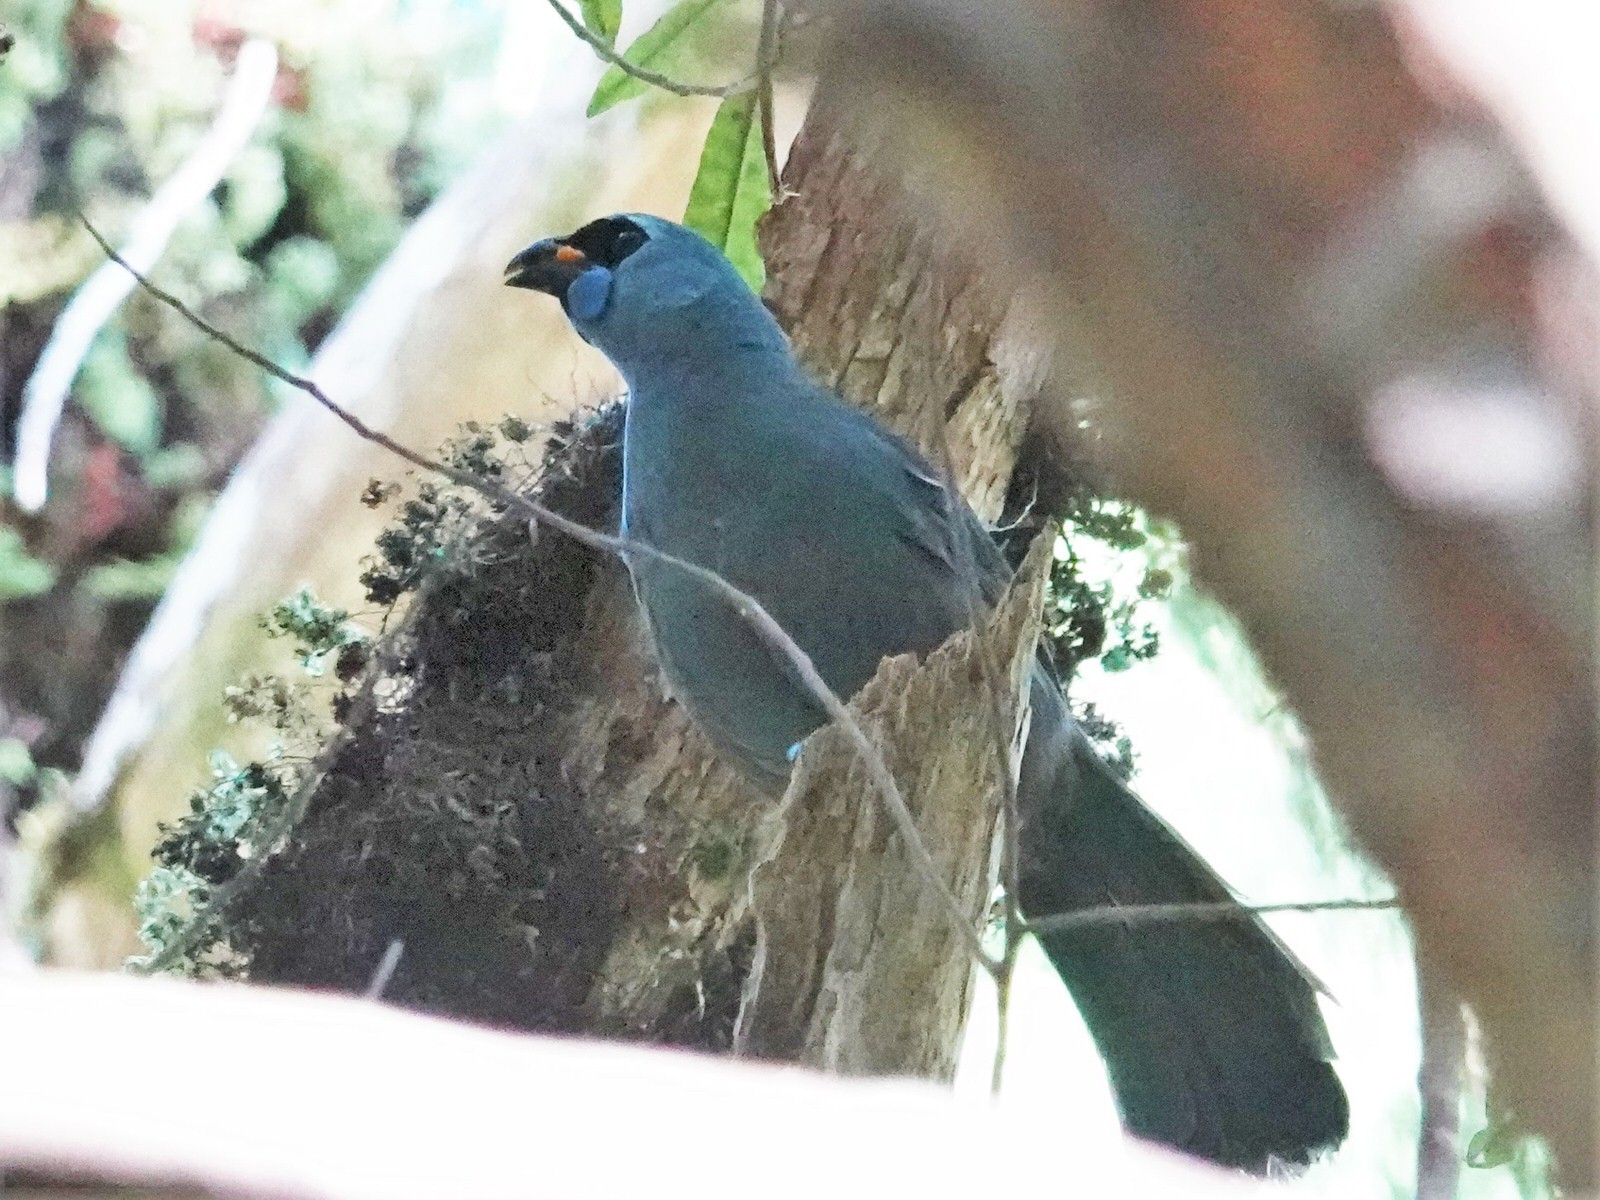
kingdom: Animalia
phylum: Chordata
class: Aves
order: Passeriformes
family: Callaeatidae
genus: Callaeas
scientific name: Callaeas cinereus
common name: South island kokako
